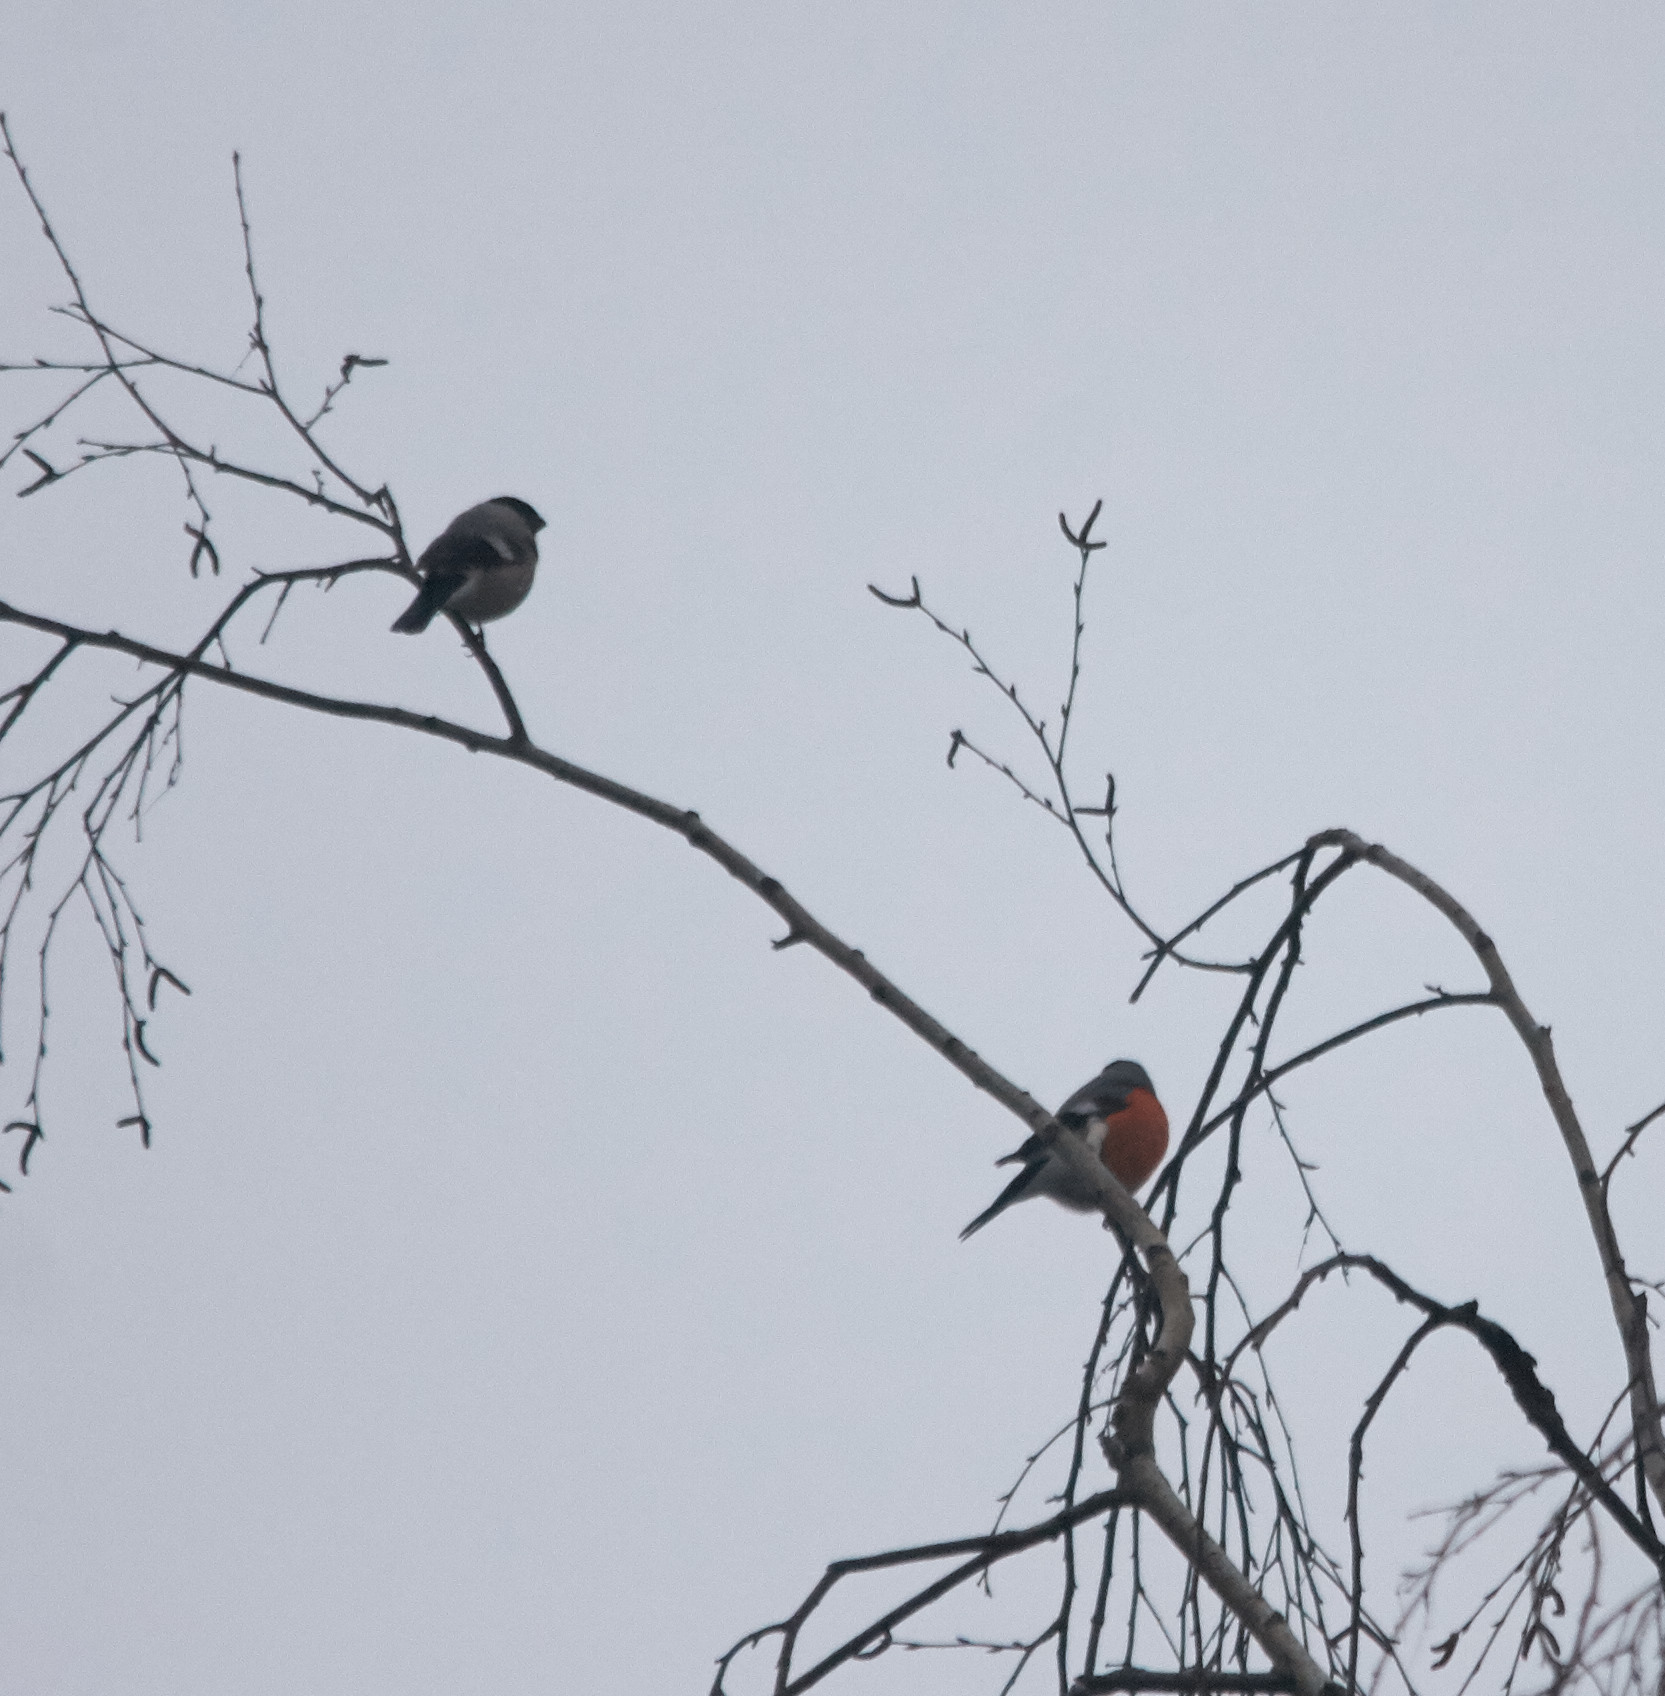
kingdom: Animalia
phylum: Chordata
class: Aves
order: Passeriformes
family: Fringillidae
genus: Pyrrhula
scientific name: Pyrrhula pyrrhula
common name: Eurasian bullfinch
